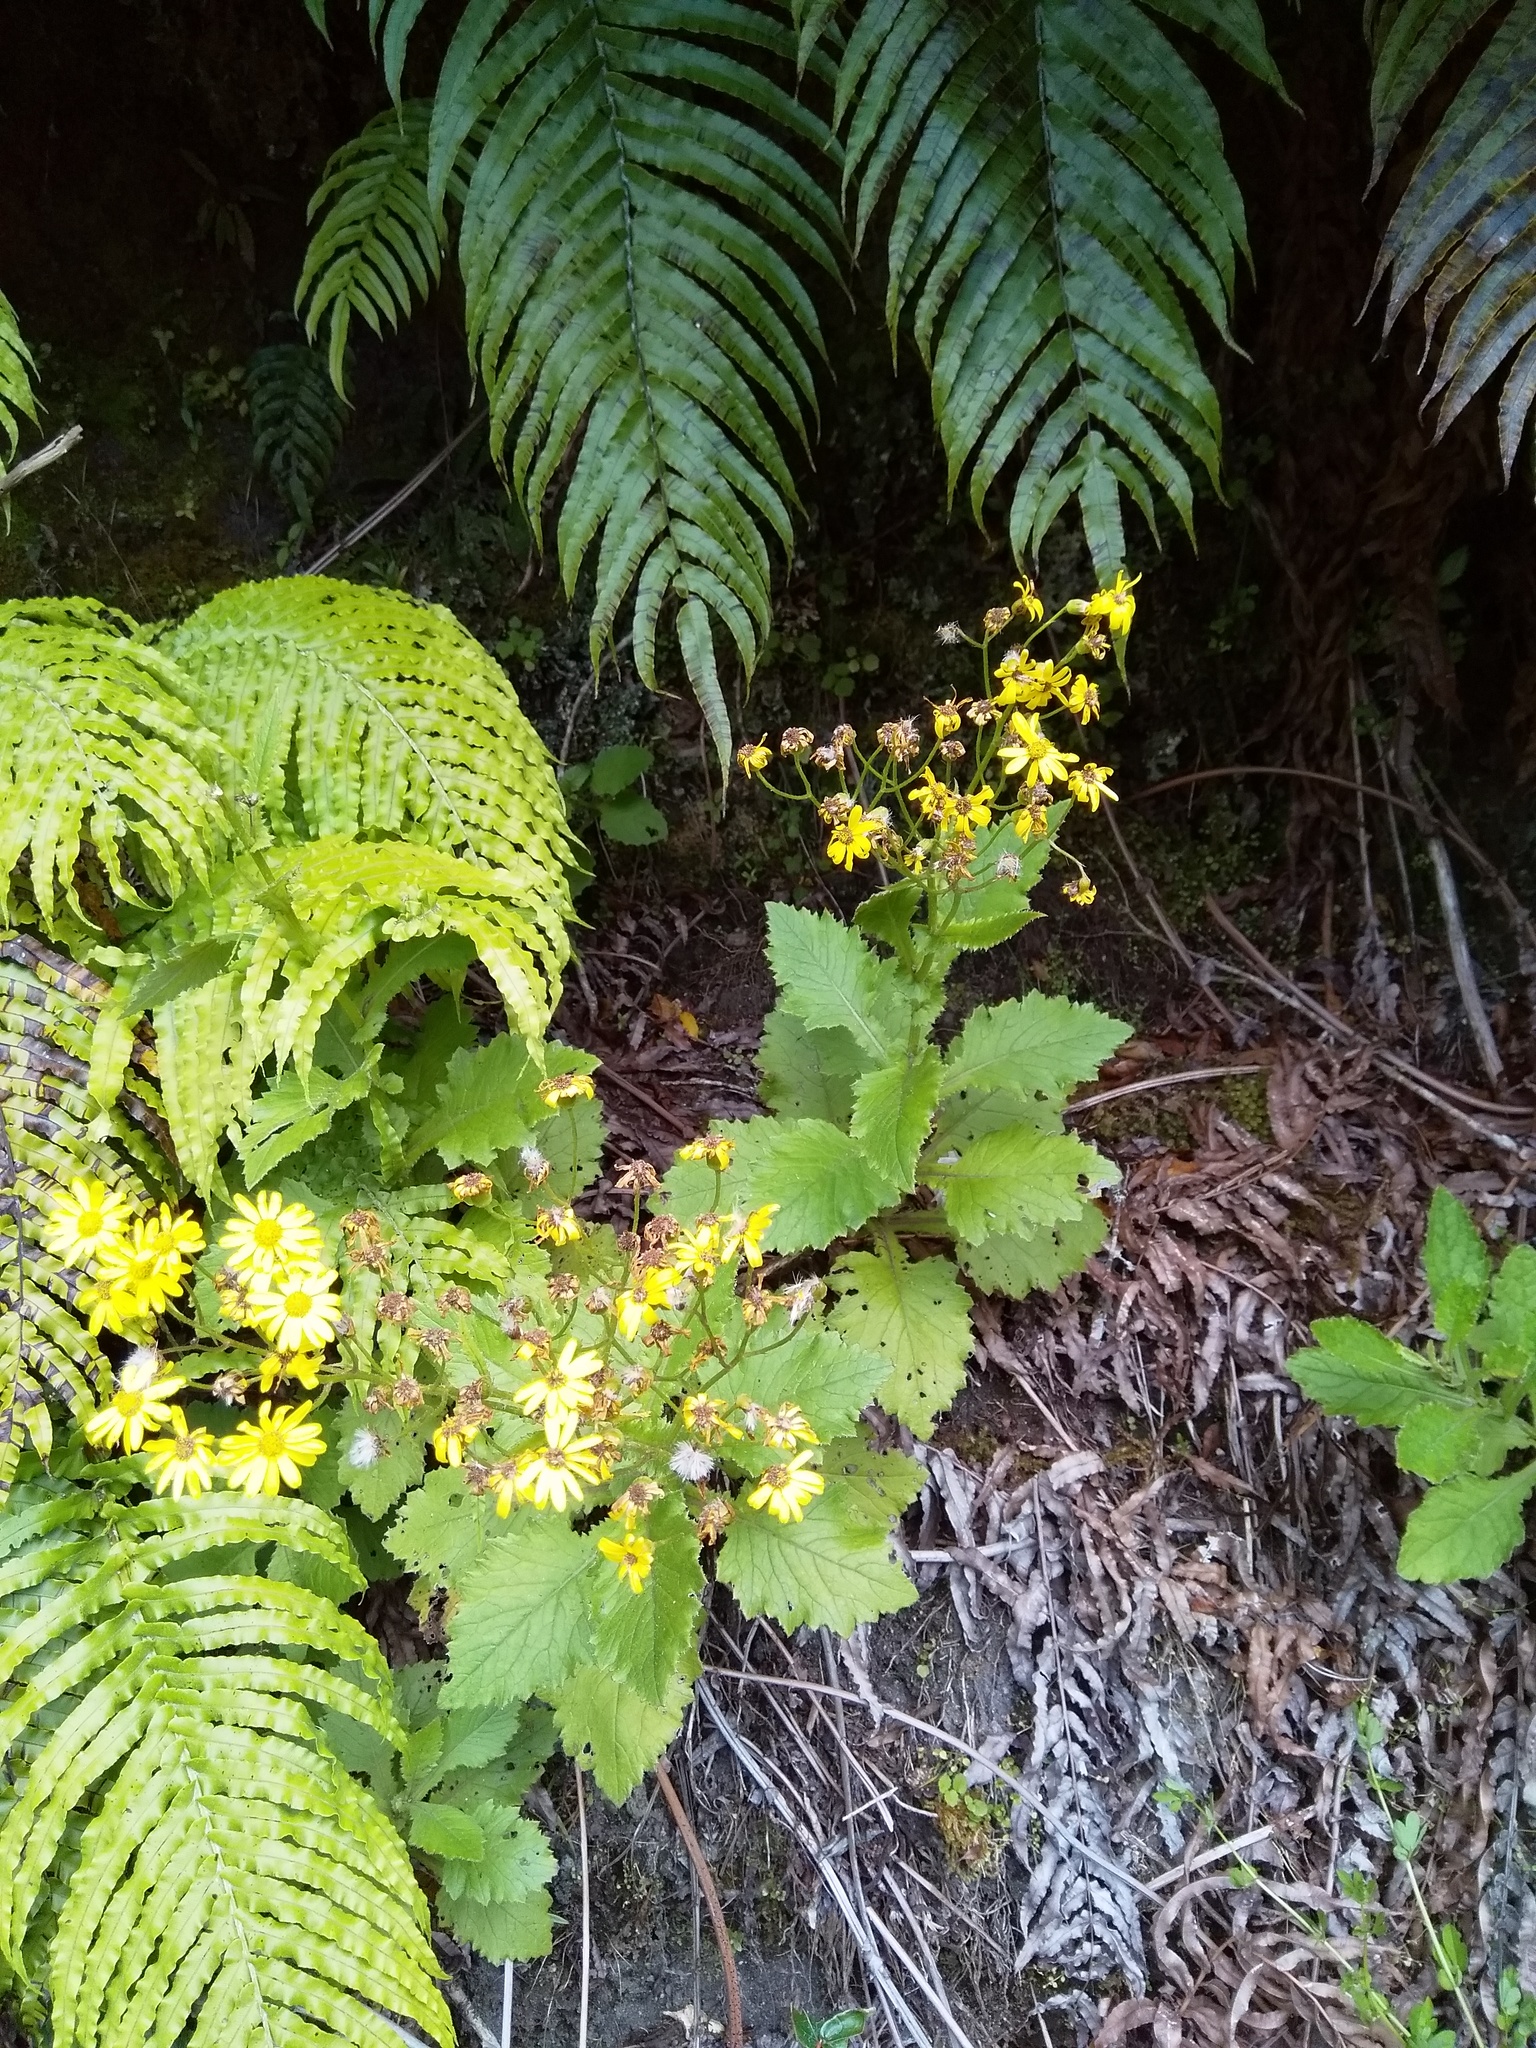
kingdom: Plantae
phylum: Tracheophyta
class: Magnoliopsida
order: Asterales
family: Asteraceae
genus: Senecio
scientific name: Senecio rufiglandulosus
